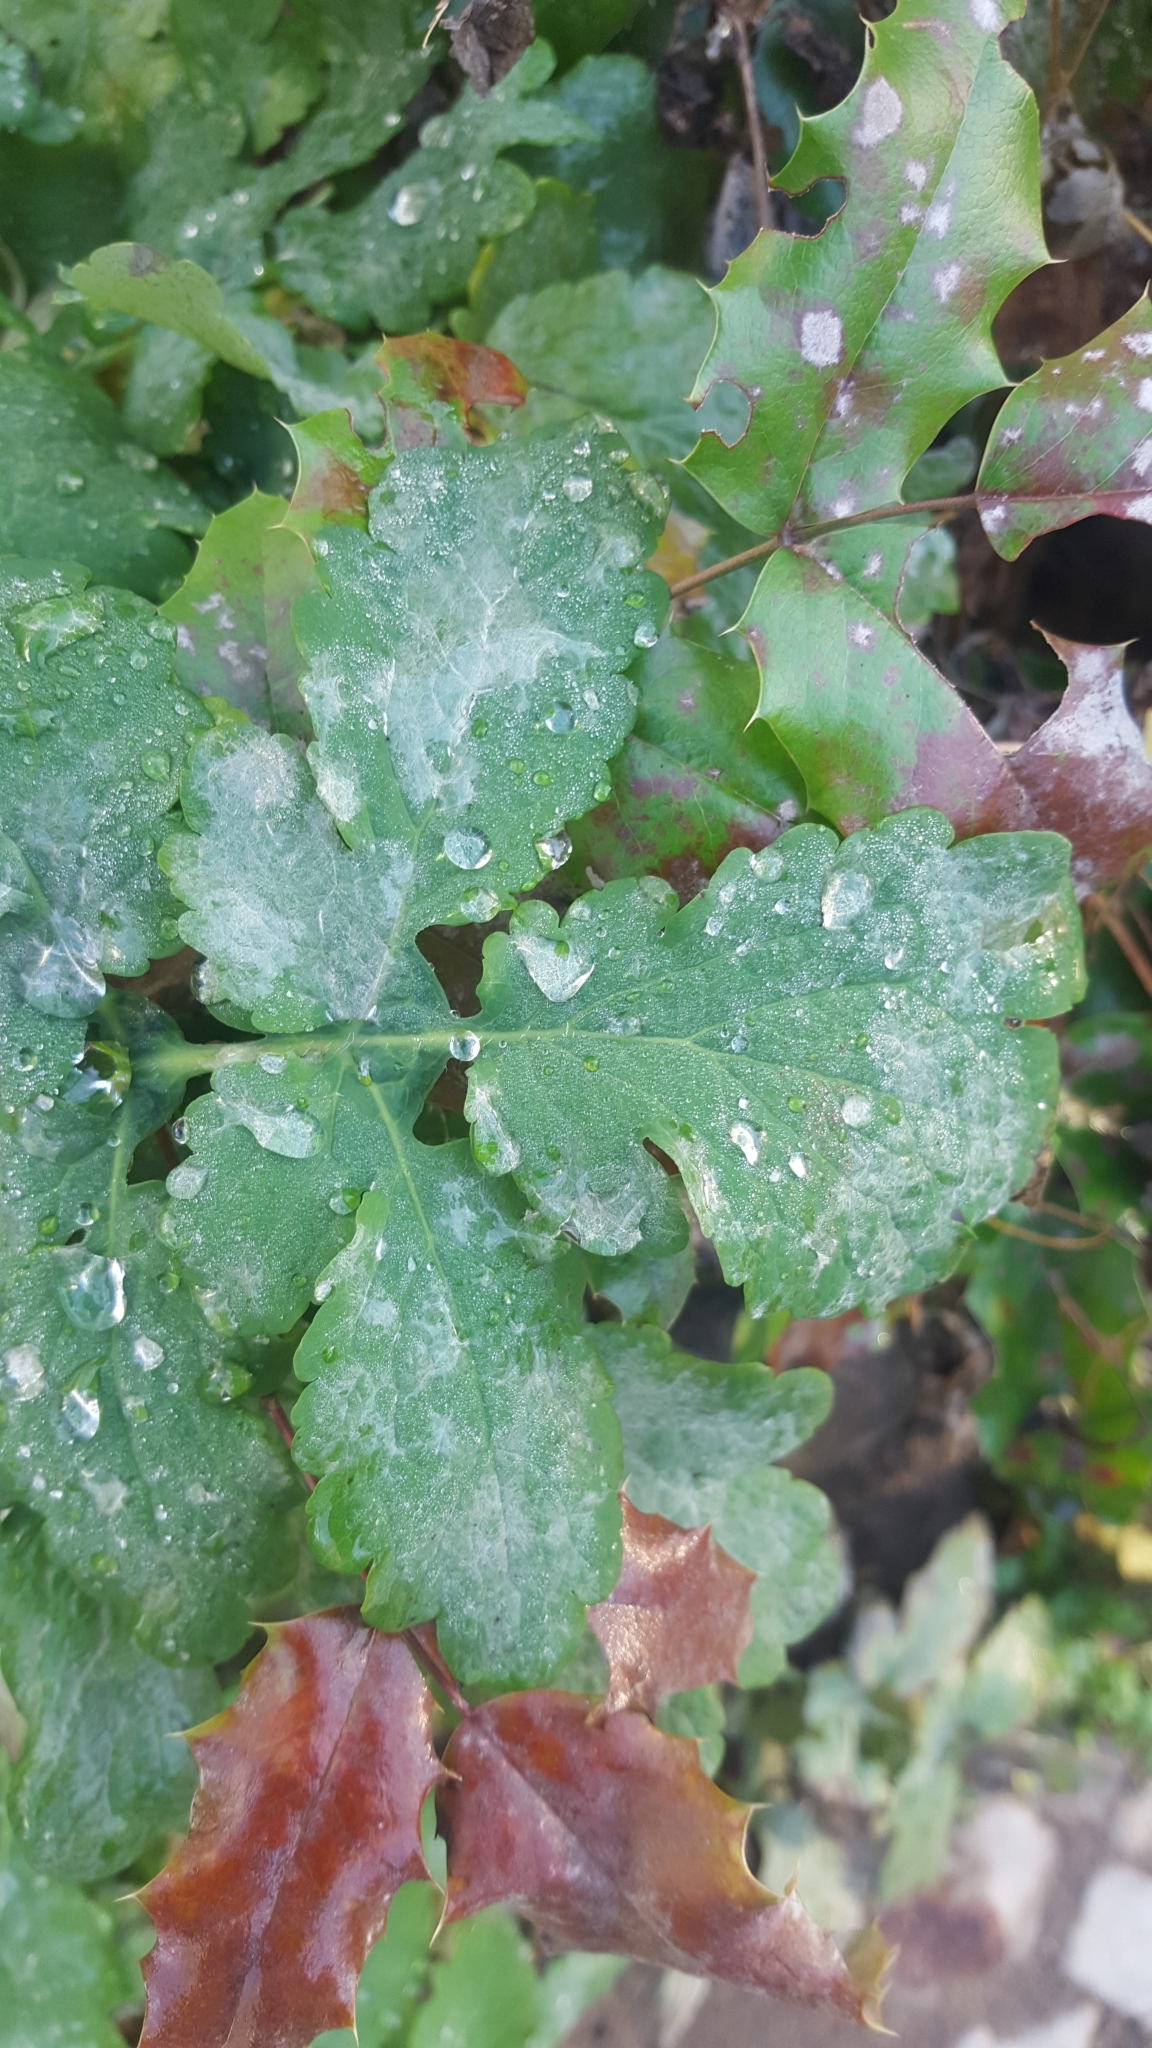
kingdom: Plantae
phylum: Tracheophyta
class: Magnoliopsida
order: Ranunculales
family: Papaveraceae
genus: Chelidonium
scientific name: Chelidonium majus
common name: Greater celandine
